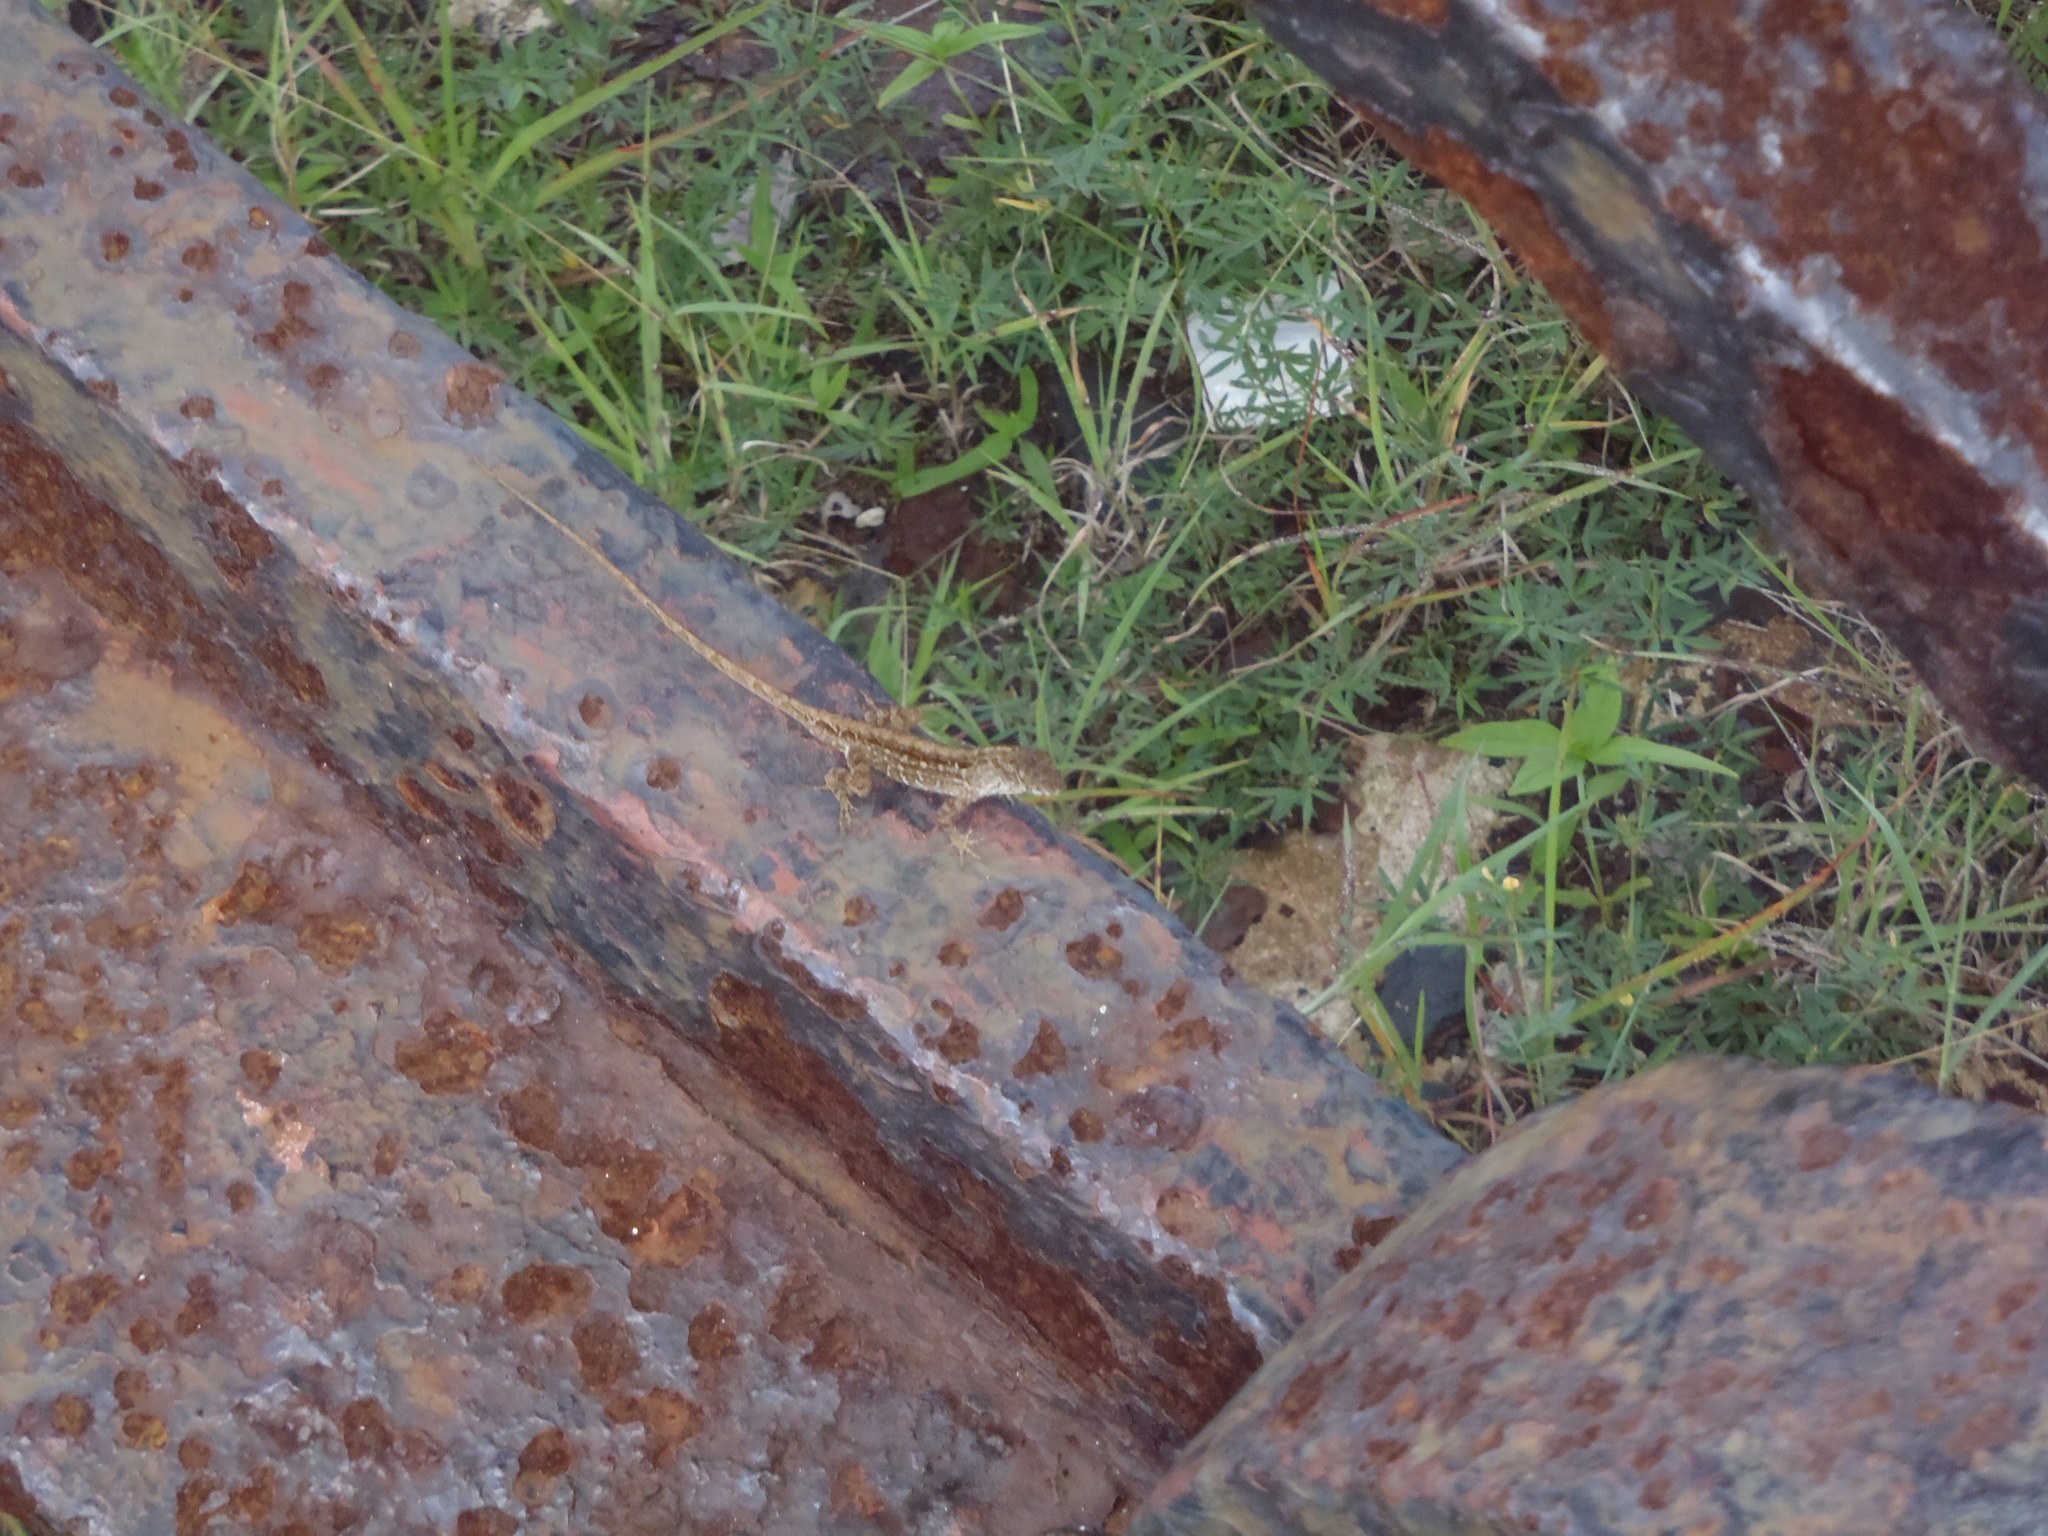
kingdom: Animalia
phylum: Chordata
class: Squamata
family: Dactyloidae
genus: Anolis
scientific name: Anolis sagrei
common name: Brown anole
